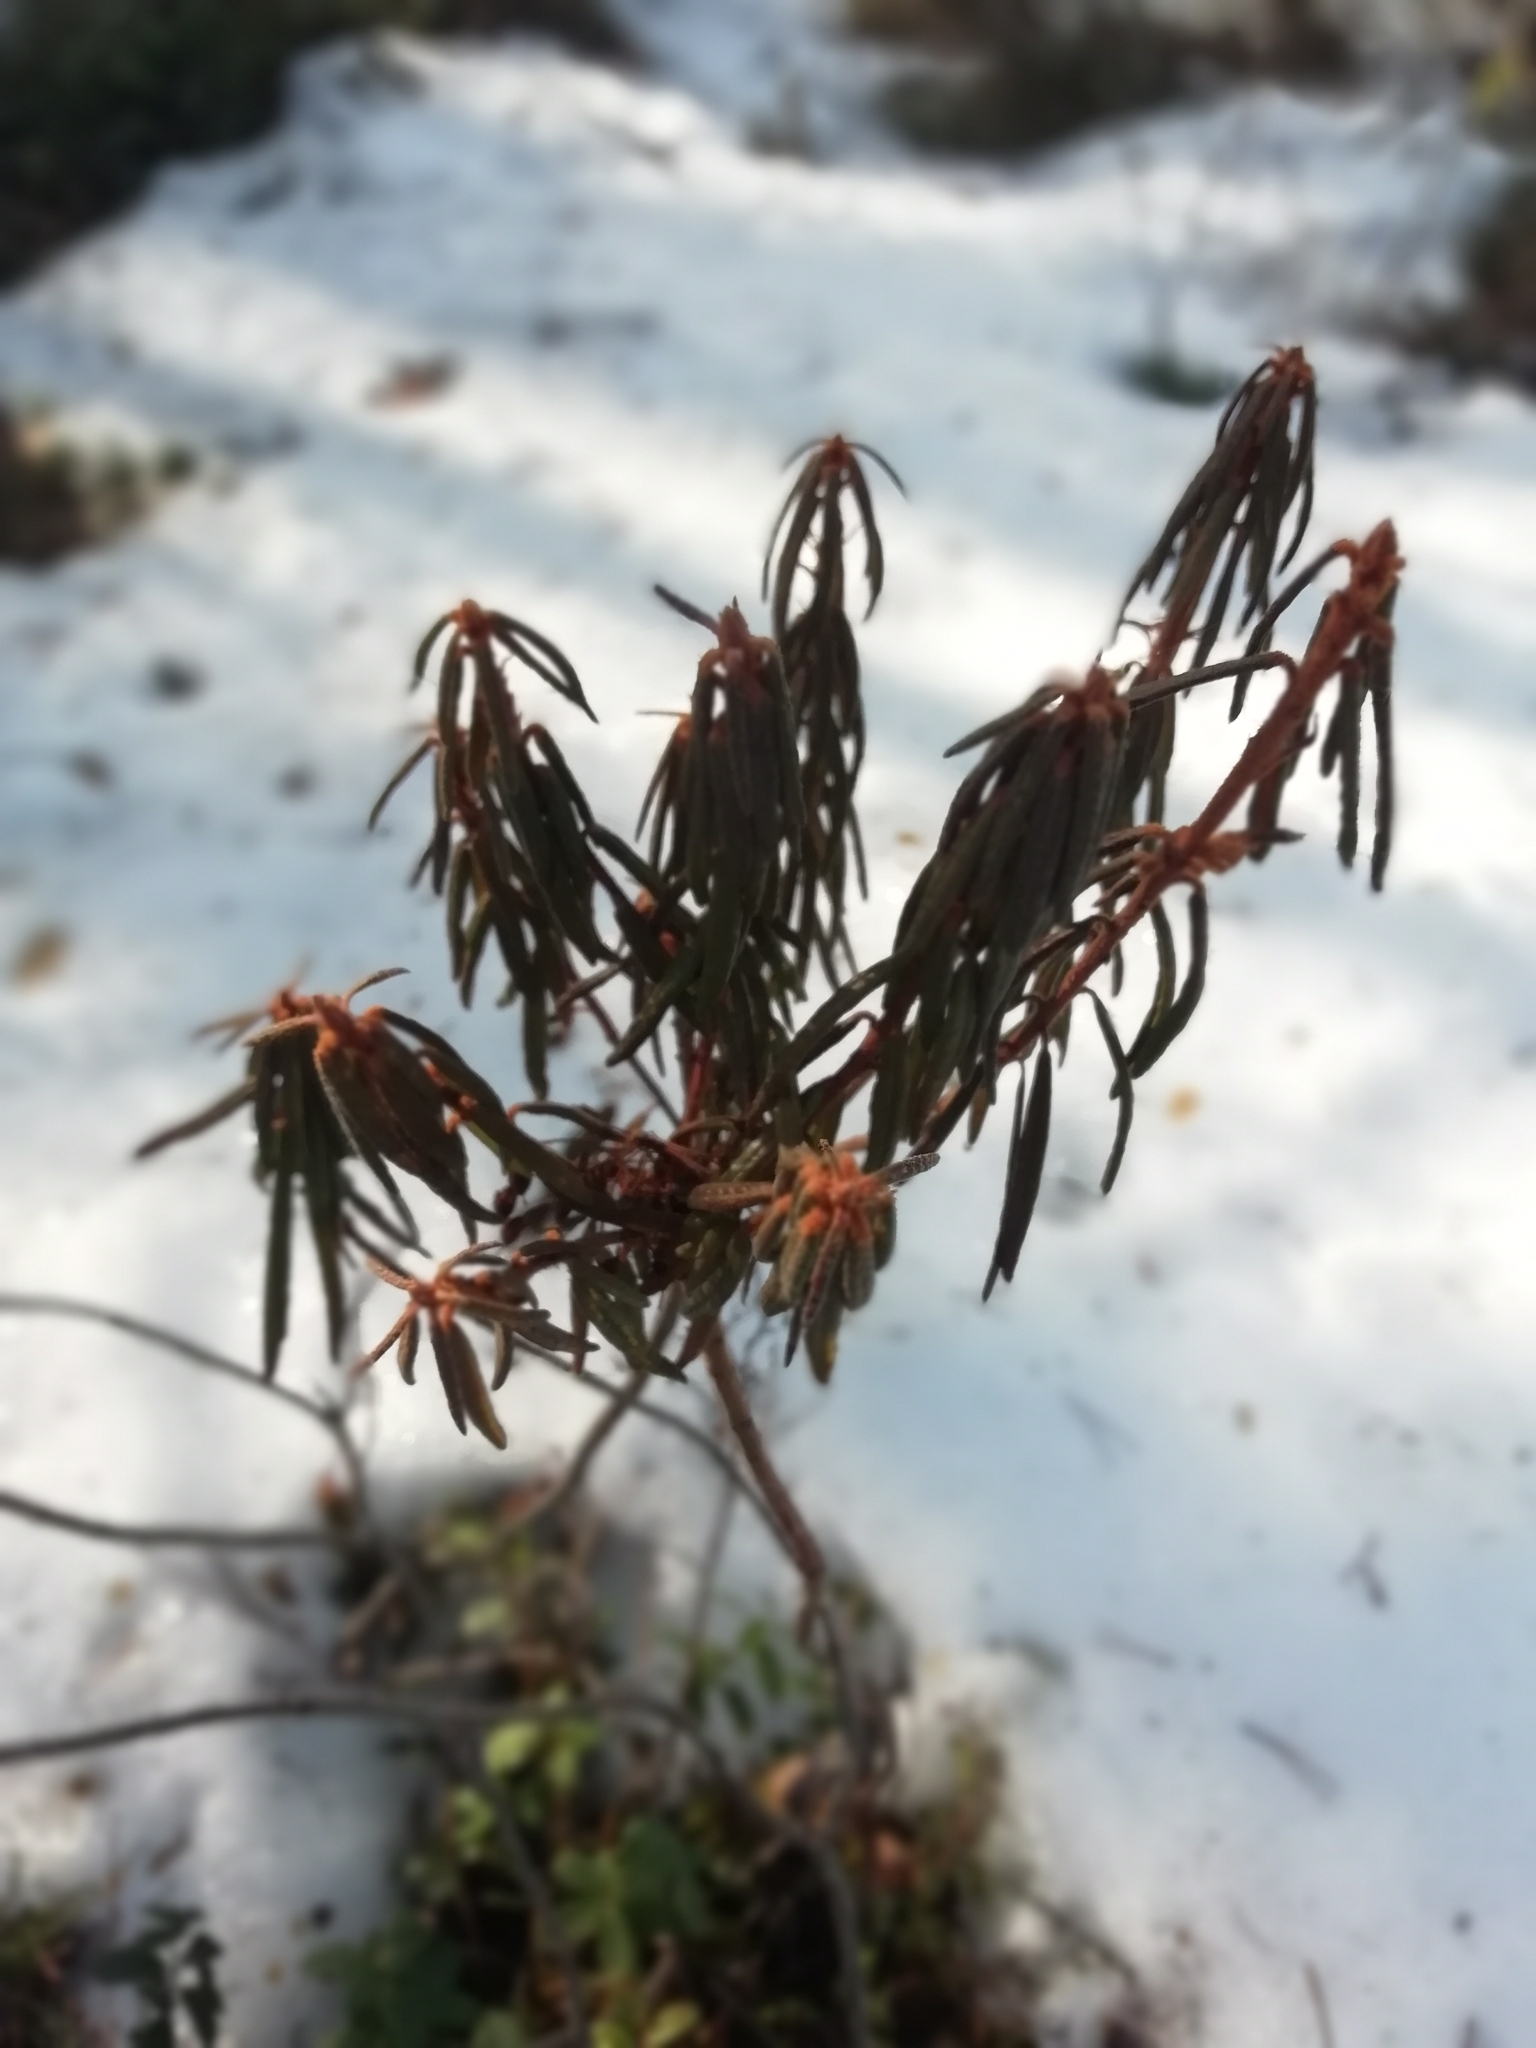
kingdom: Plantae
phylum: Tracheophyta
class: Magnoliopsida
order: Ericales
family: Ericaceae
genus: Rhododendron
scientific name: Rhododendron tomentosum
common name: Marsh labrador tea
